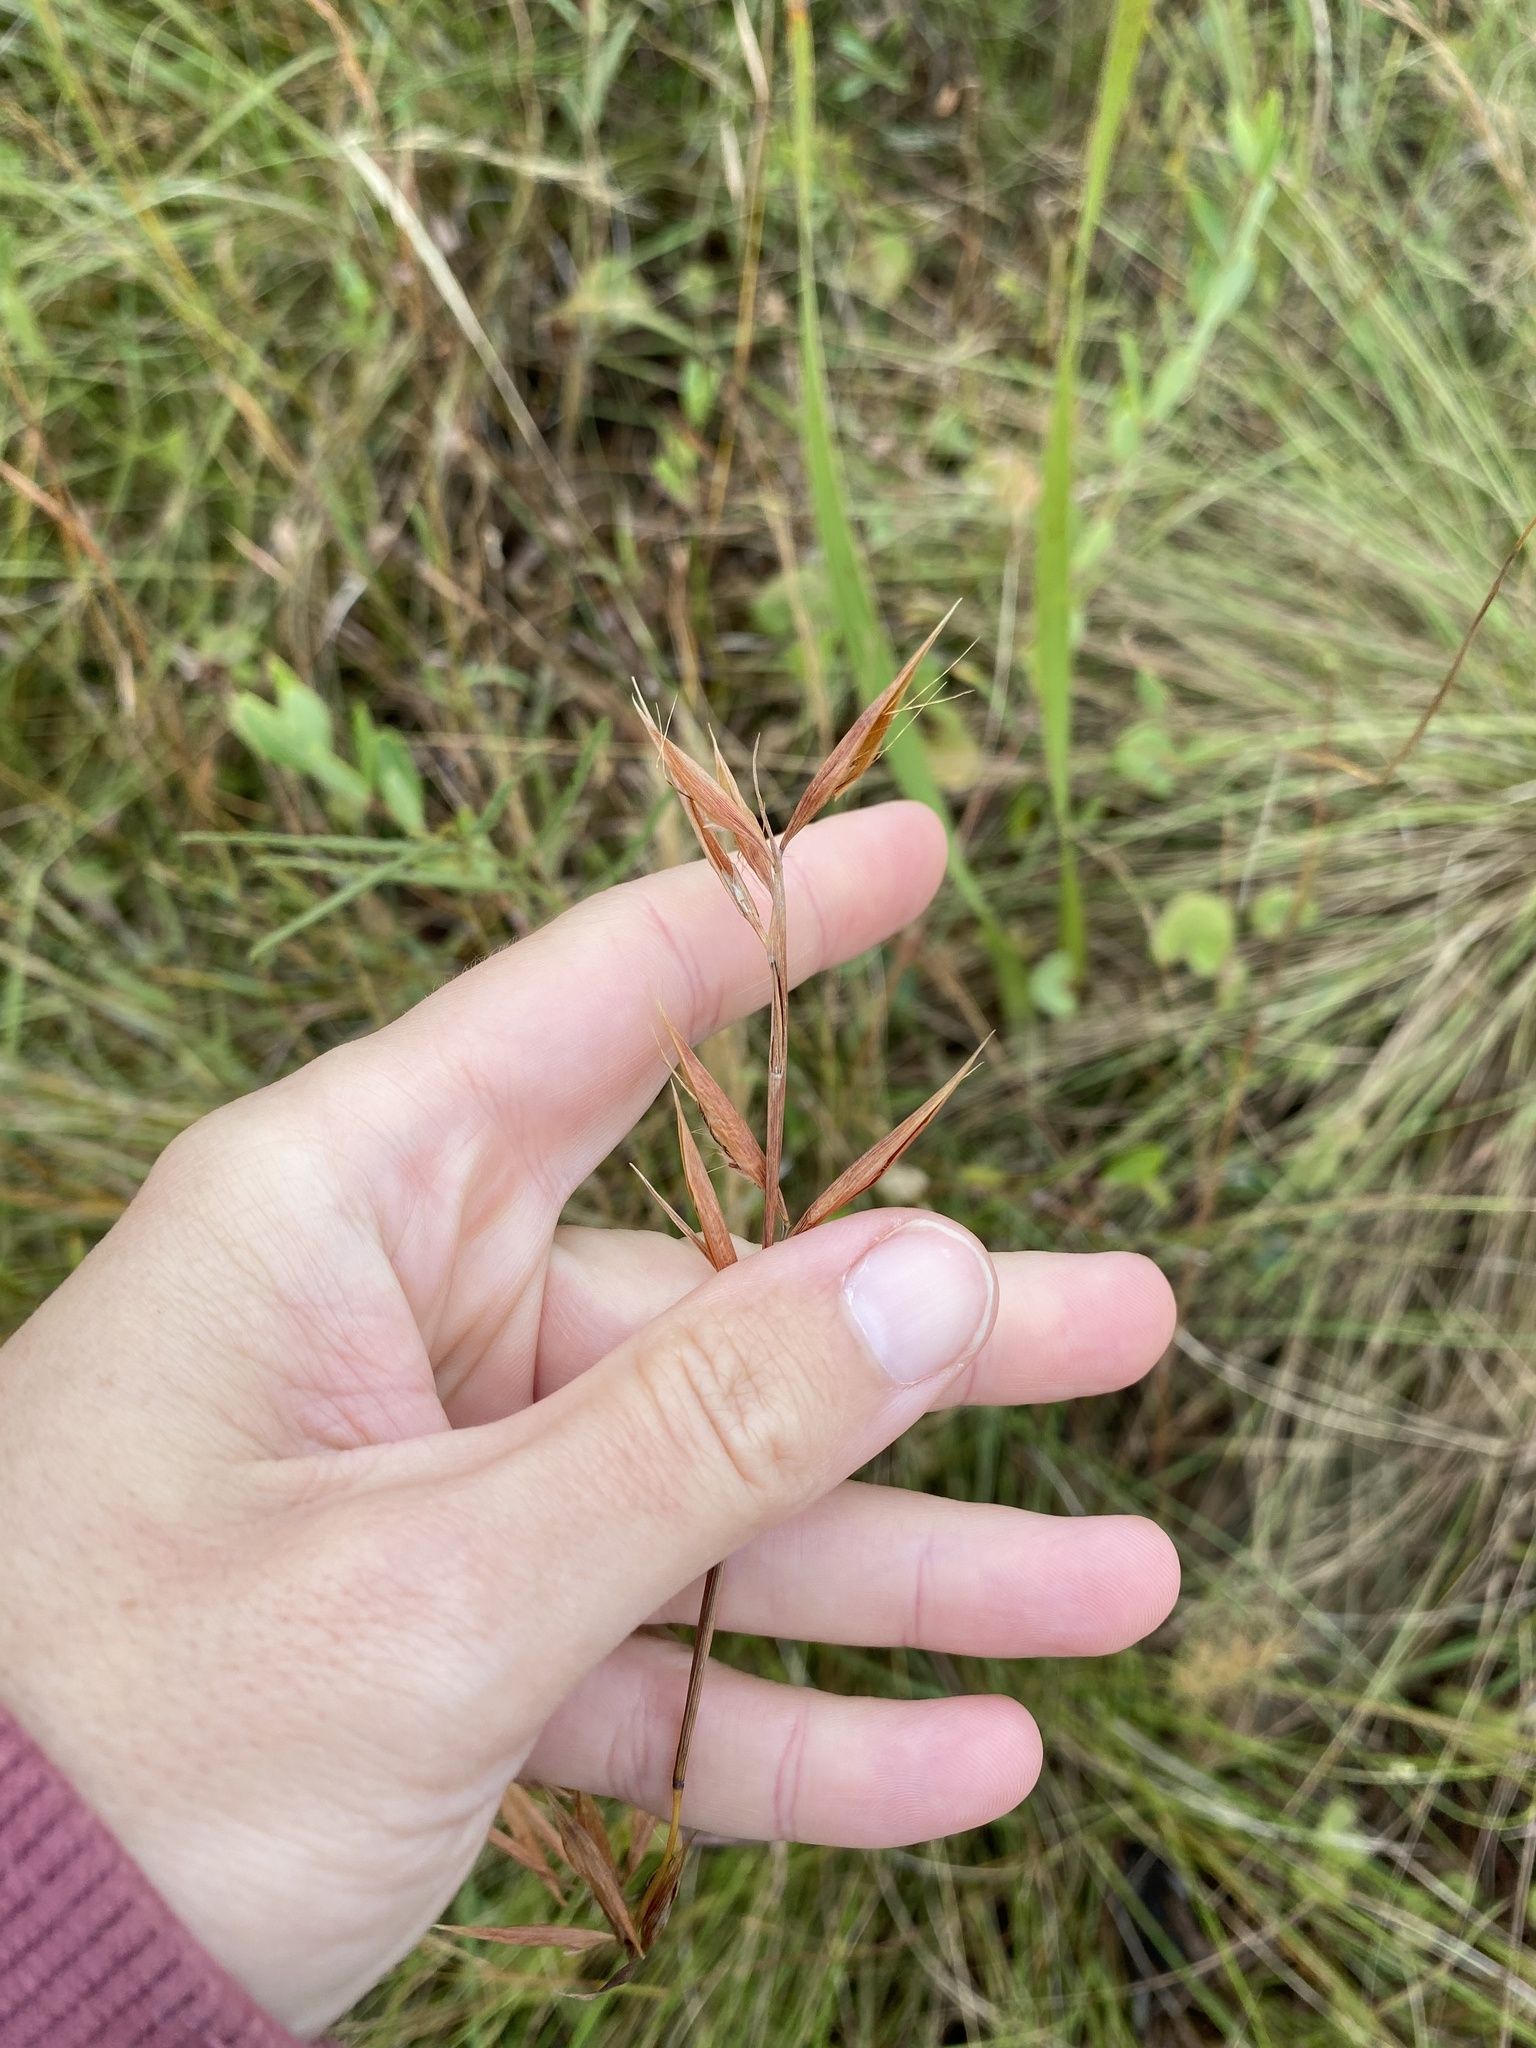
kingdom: Plantae
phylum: Tracheophyta
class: Liliopsida
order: Poales
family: Poaceae
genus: Monocymbium
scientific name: Monocymbium ceresiiforme
